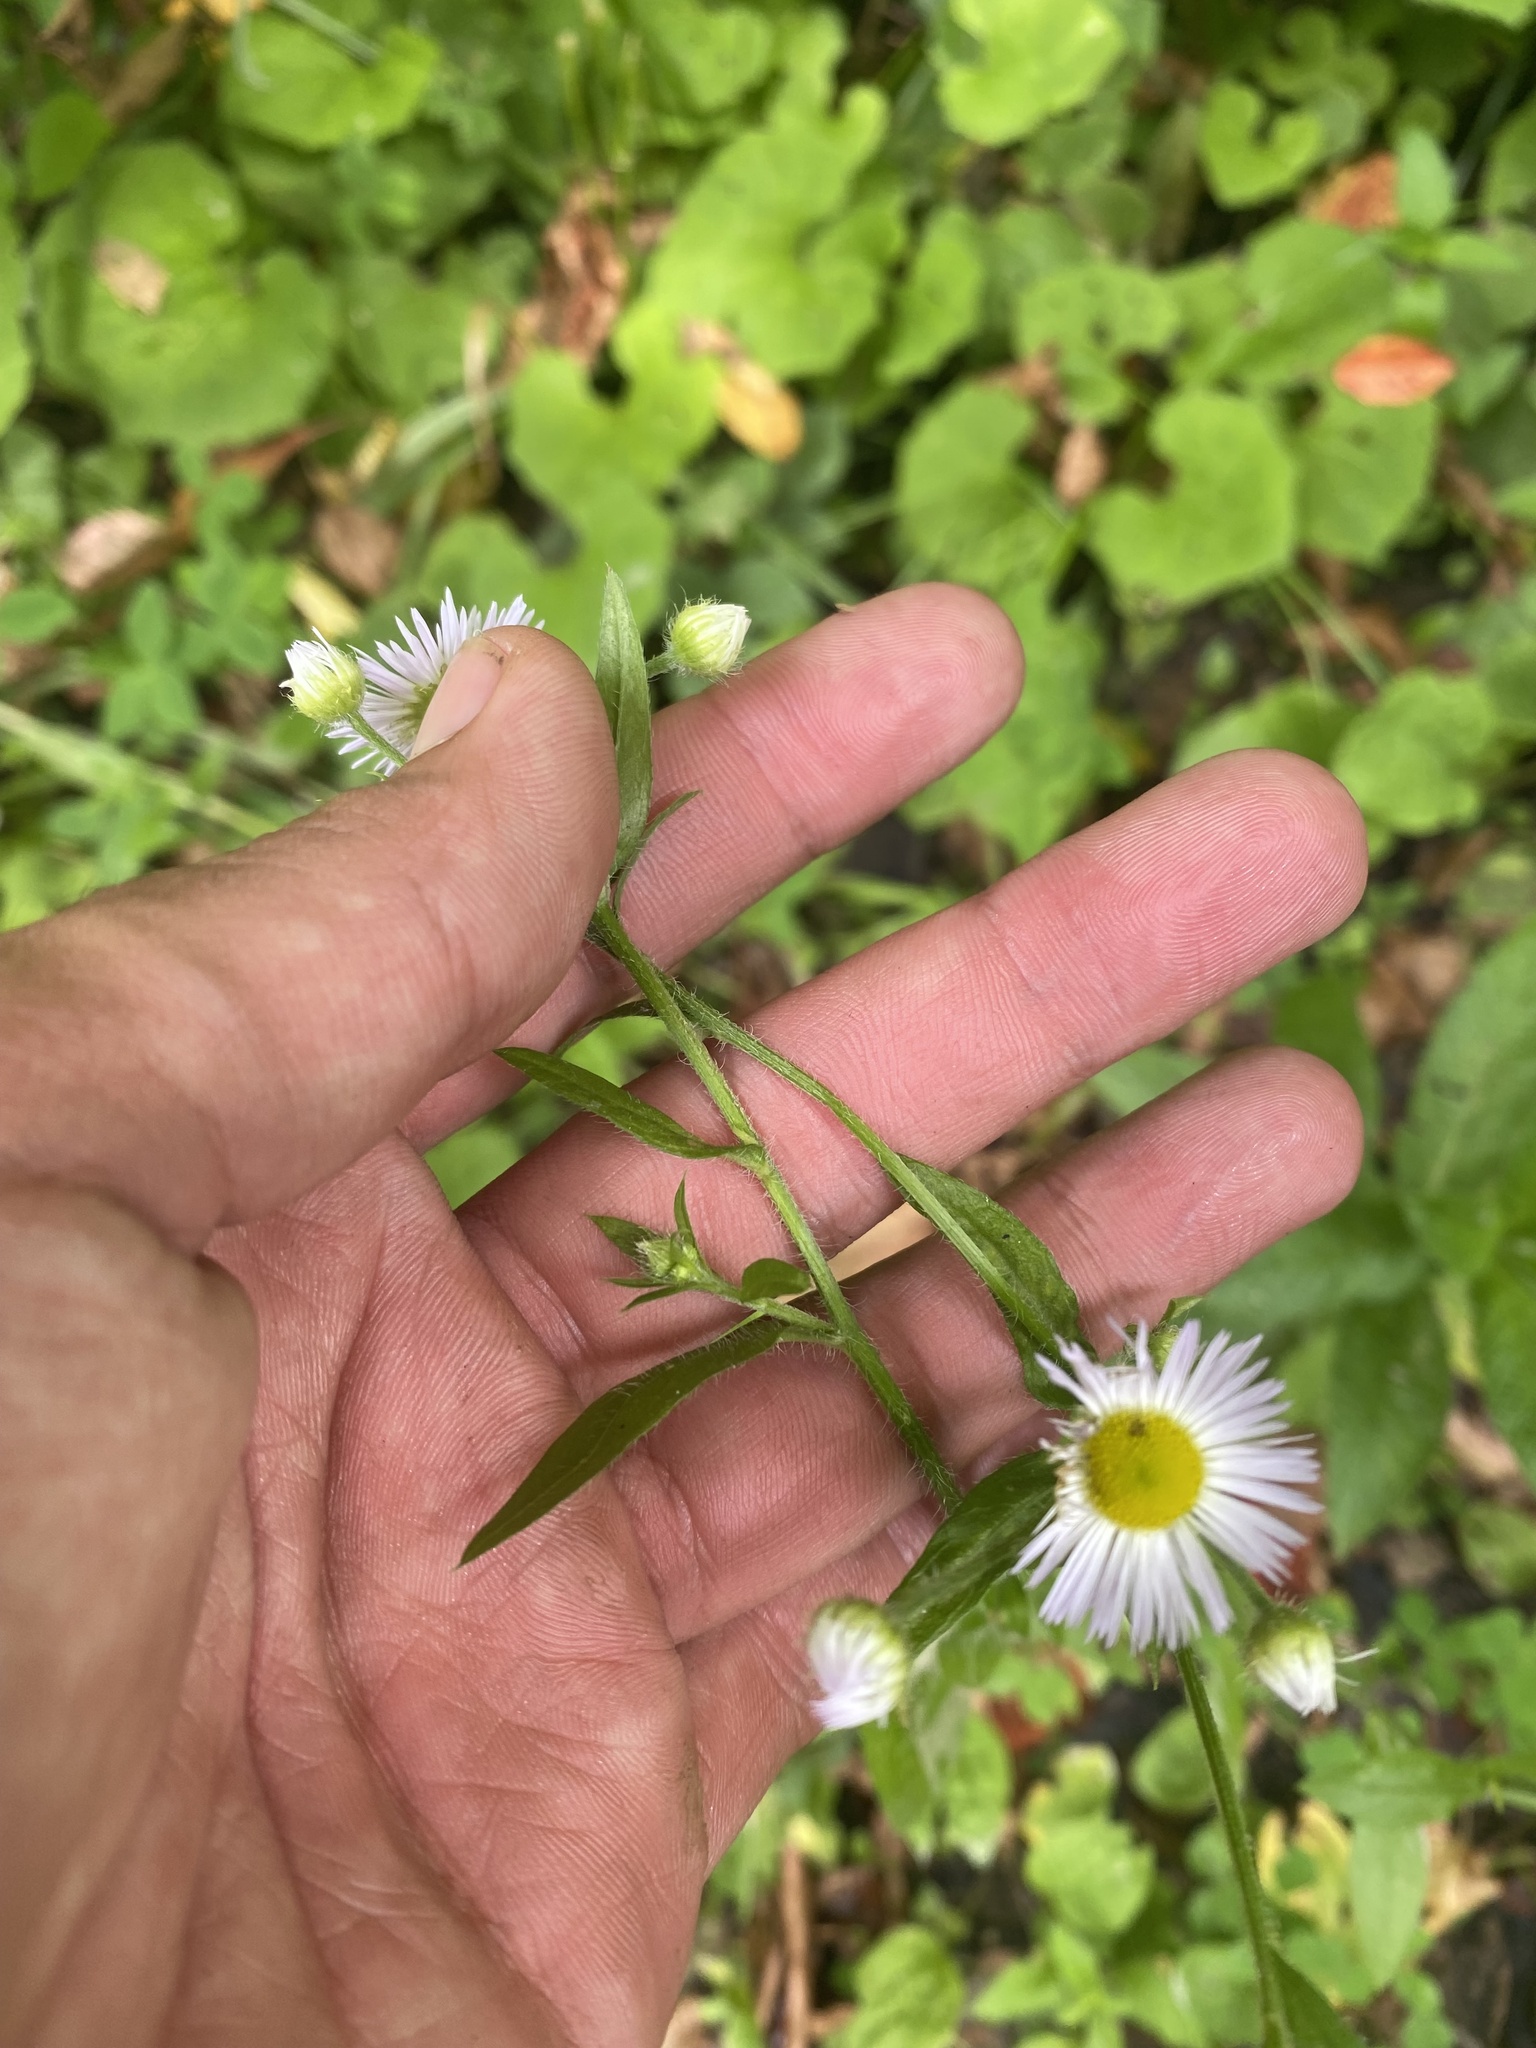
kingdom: Plantae
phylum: Tracheophyta
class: Magnoliopsida
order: Asterales
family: Asteraceae
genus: Erigeron
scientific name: Erigeron annuus
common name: Tall fleabane
